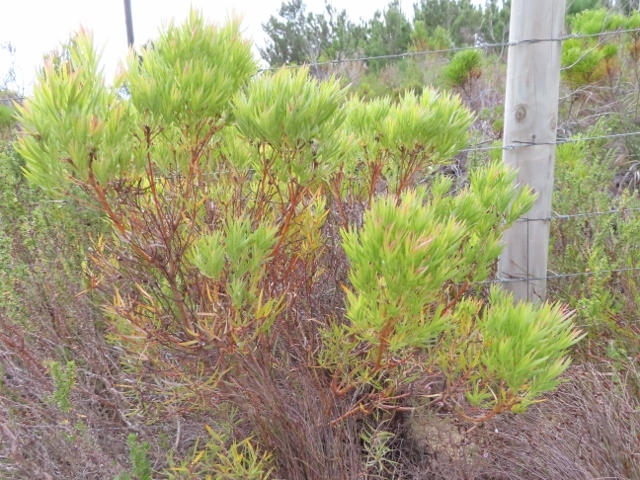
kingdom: Plantae
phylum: Tracheophyta
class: Magnoliopsida
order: Proteales
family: Proteaceae
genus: Leucadendron
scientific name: Leucadendron xanthoconus
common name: Sickle-leaf conebush
